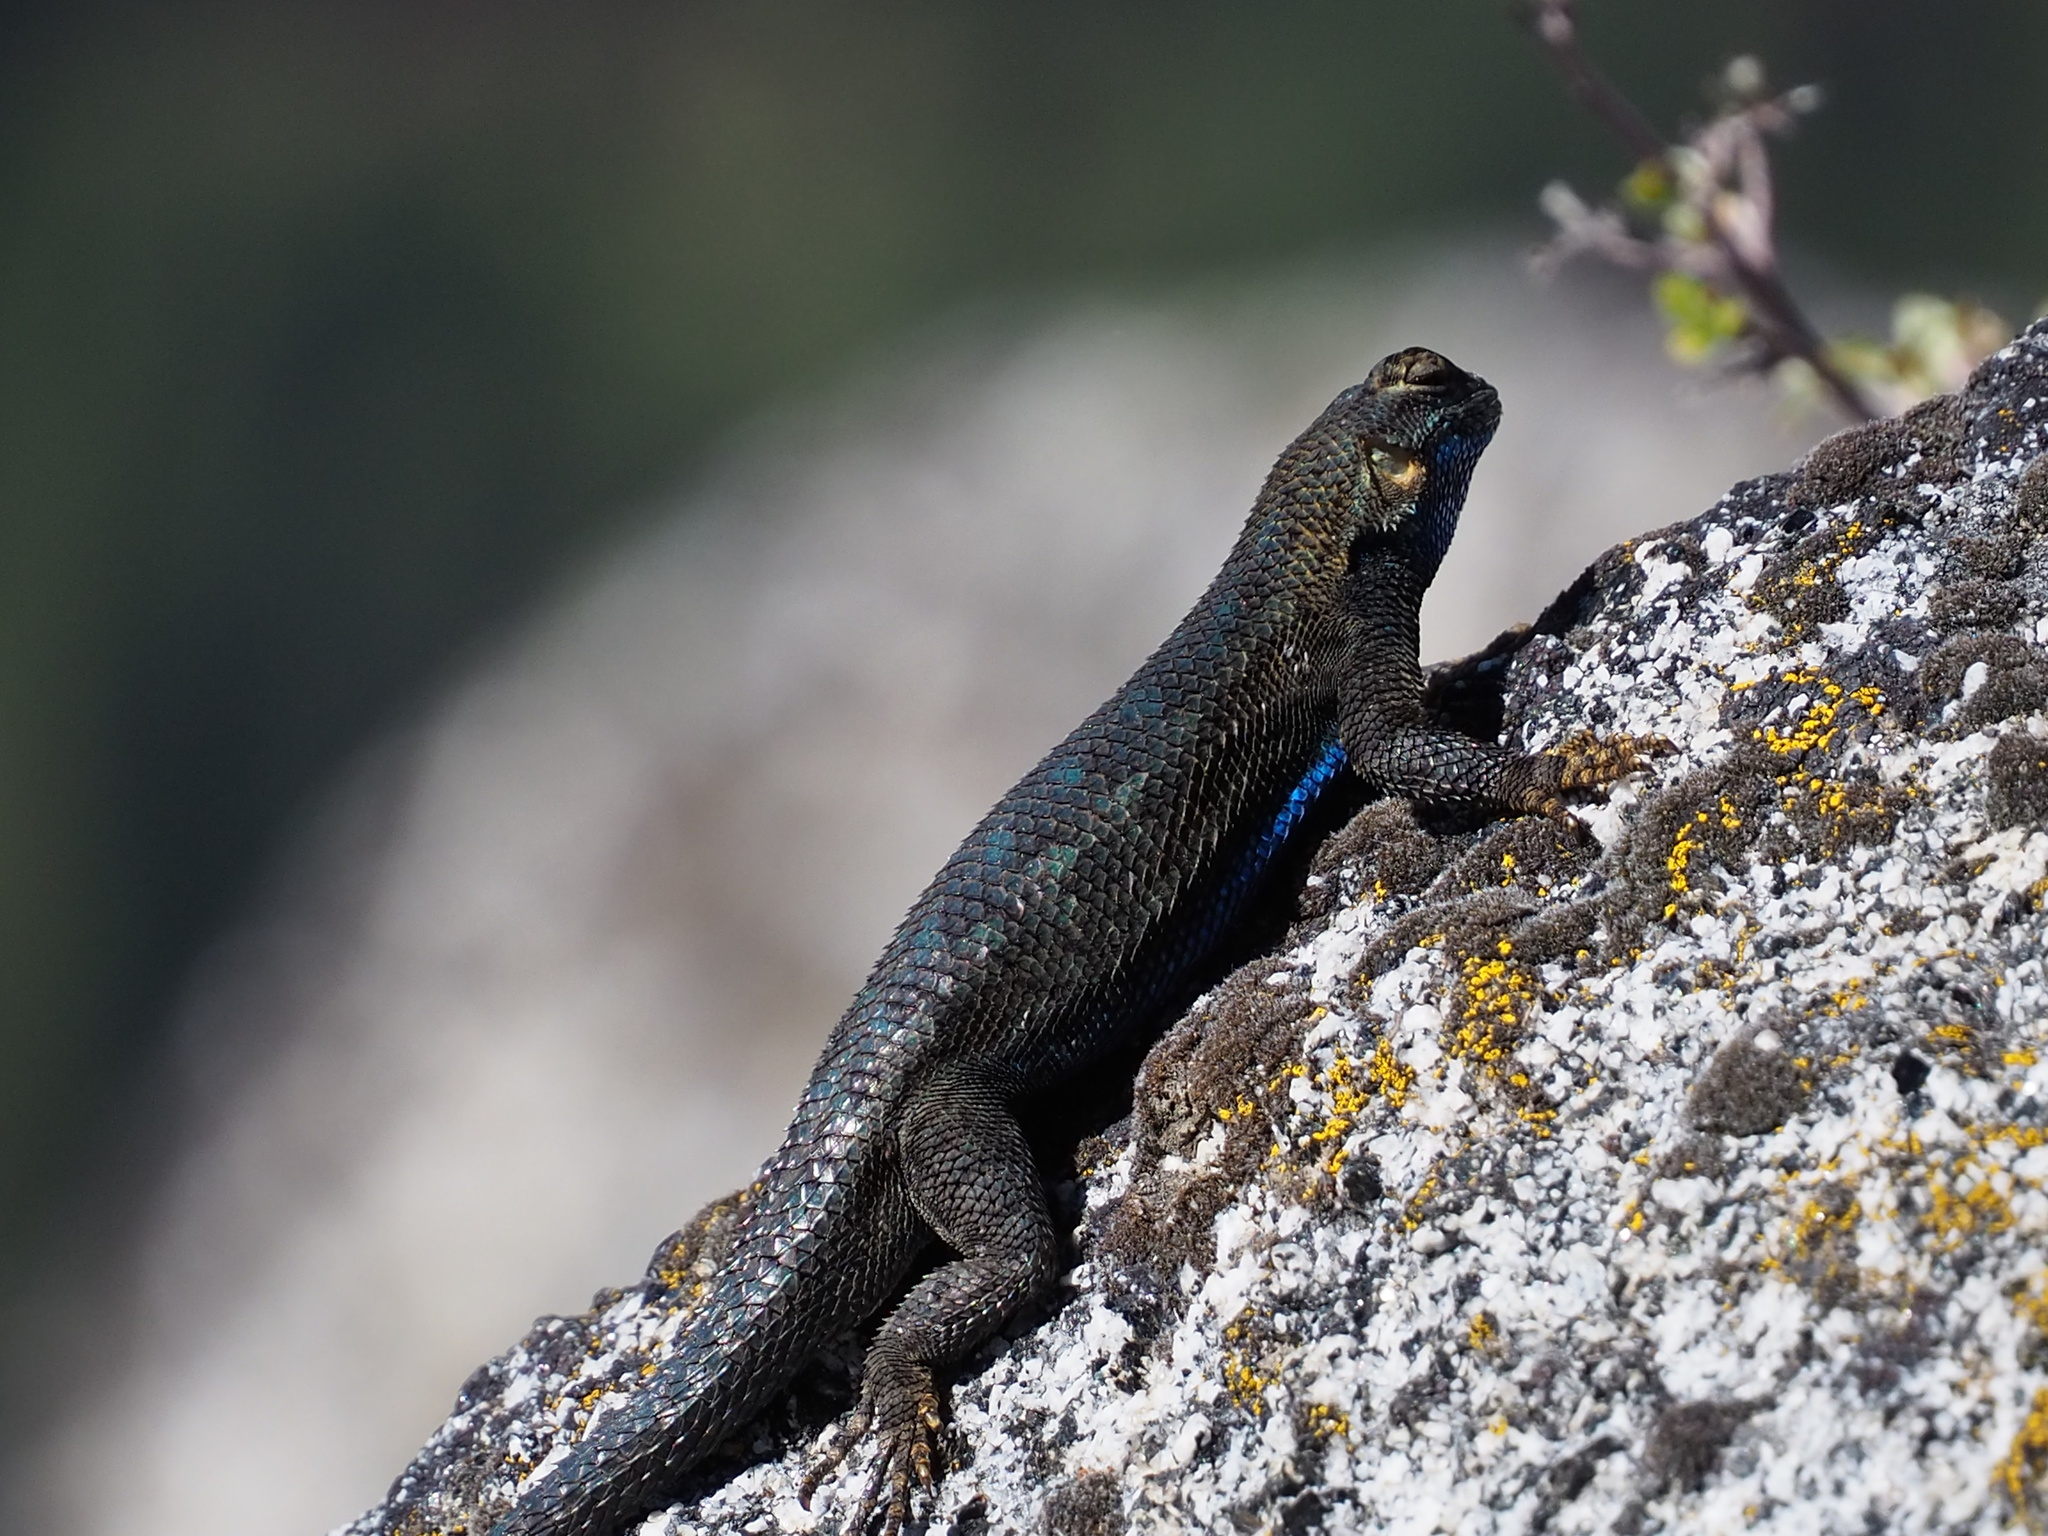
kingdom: Animalia
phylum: Chordata
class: Squamata
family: Phrynosomatidae
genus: Sceloporus
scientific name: Sceloporus occidentalis
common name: Western fence lizard
